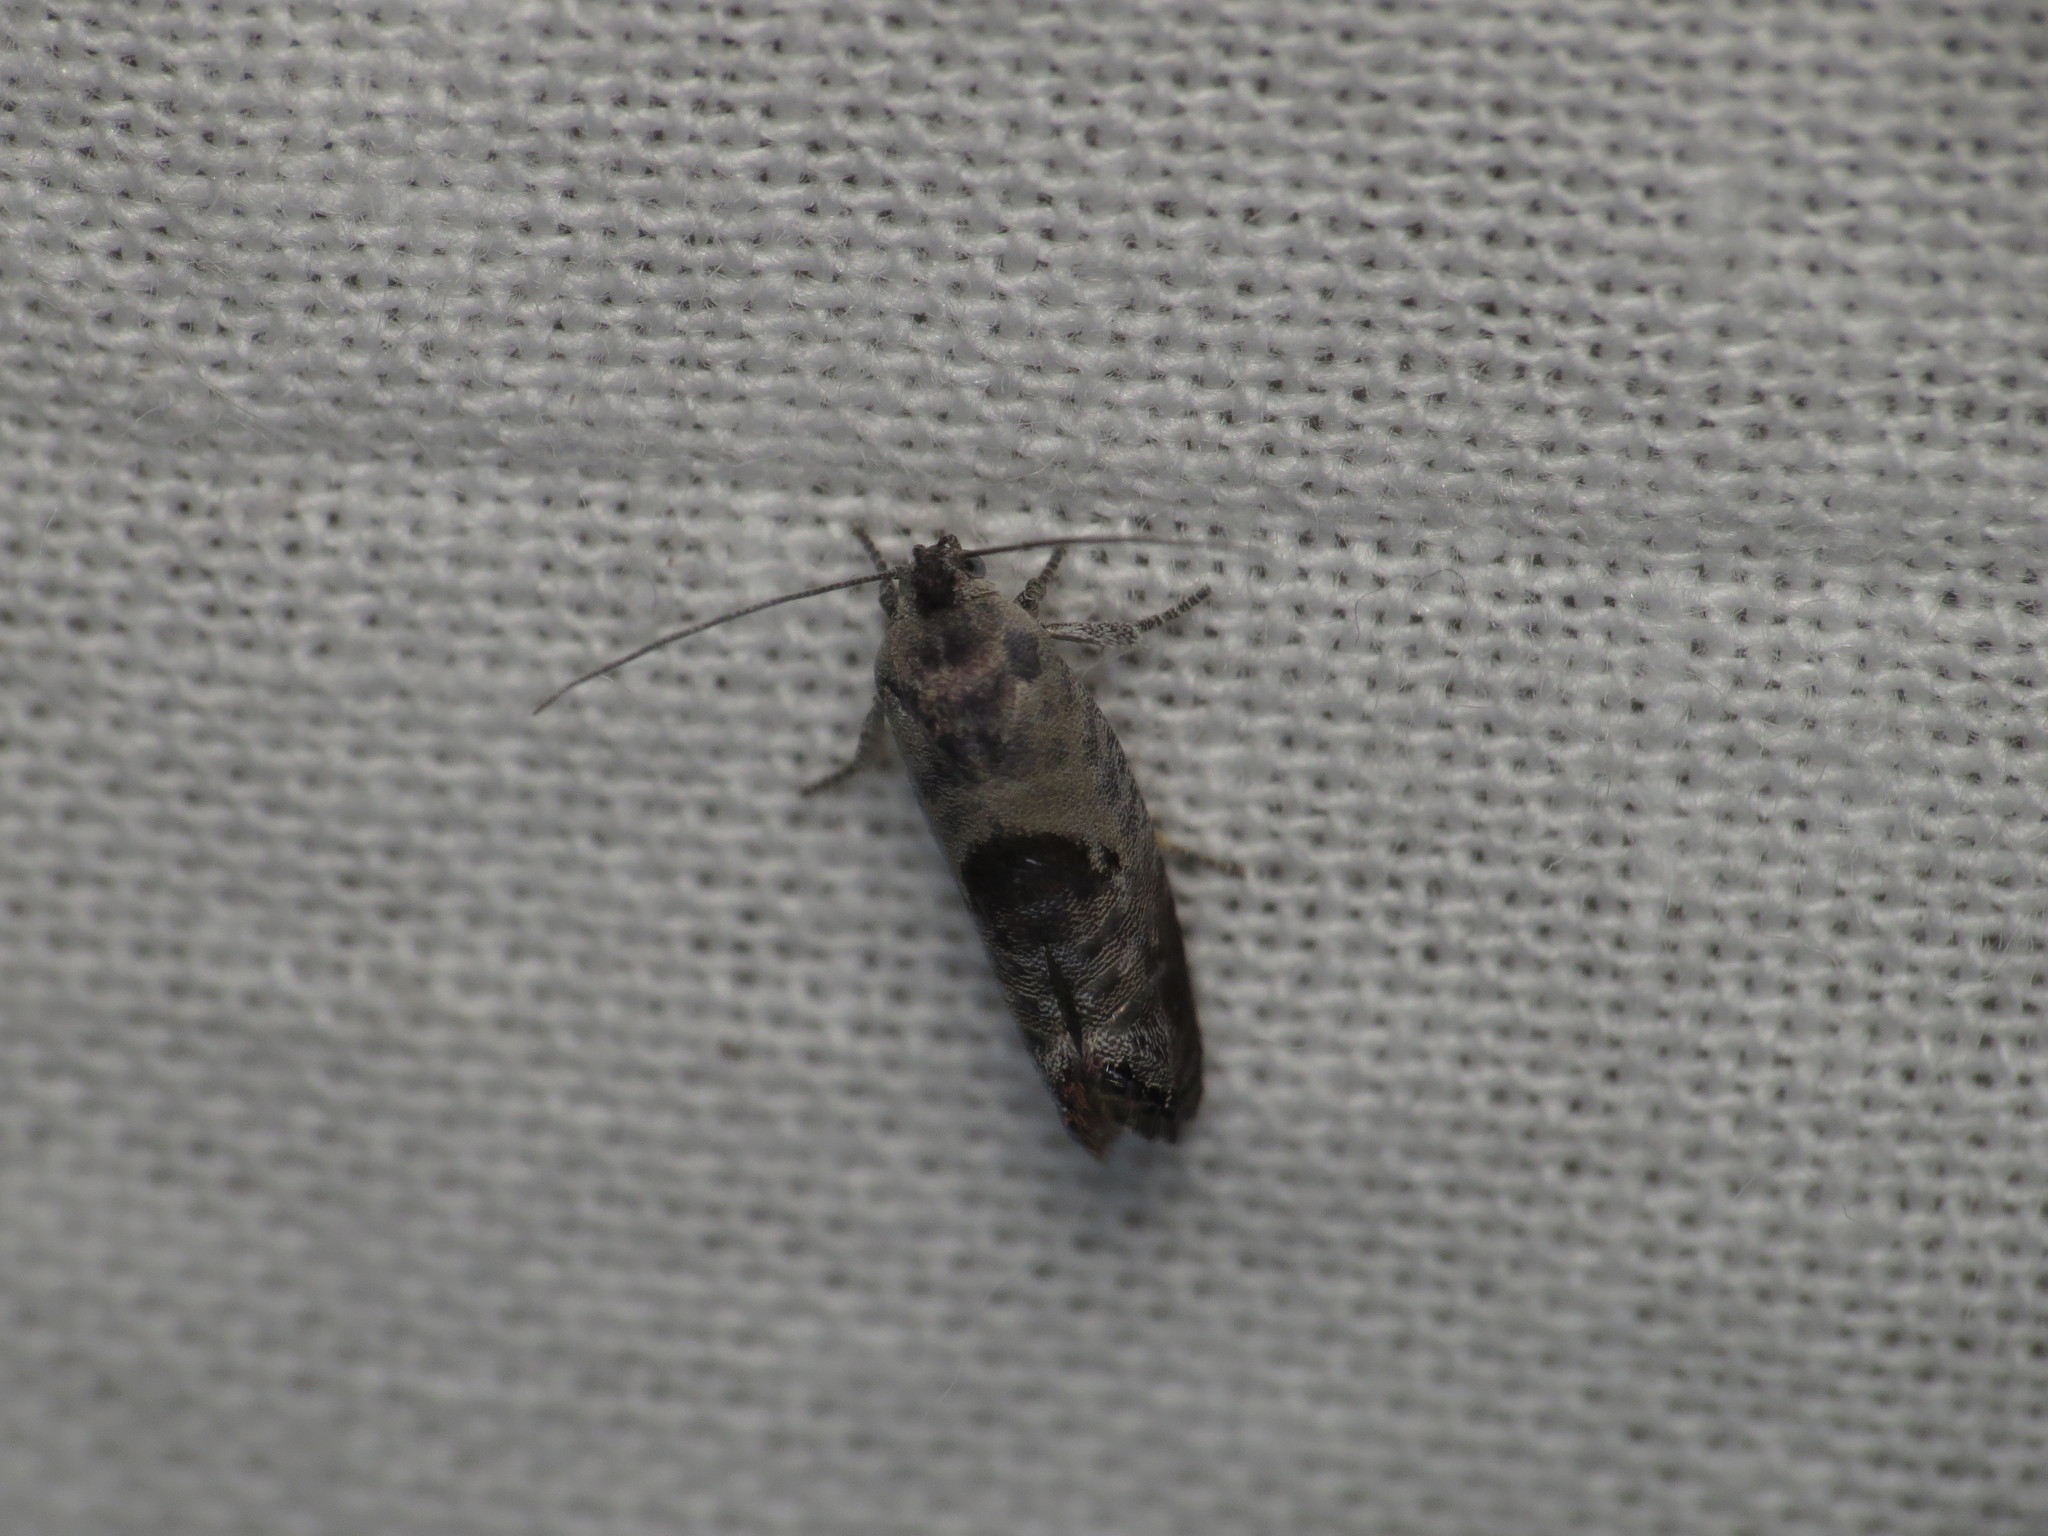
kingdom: Animalia
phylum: Arthropoda
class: Insecta
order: Lepidoptera
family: Depressariidae
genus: Eupselia
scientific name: Eupselia carpocapsella
